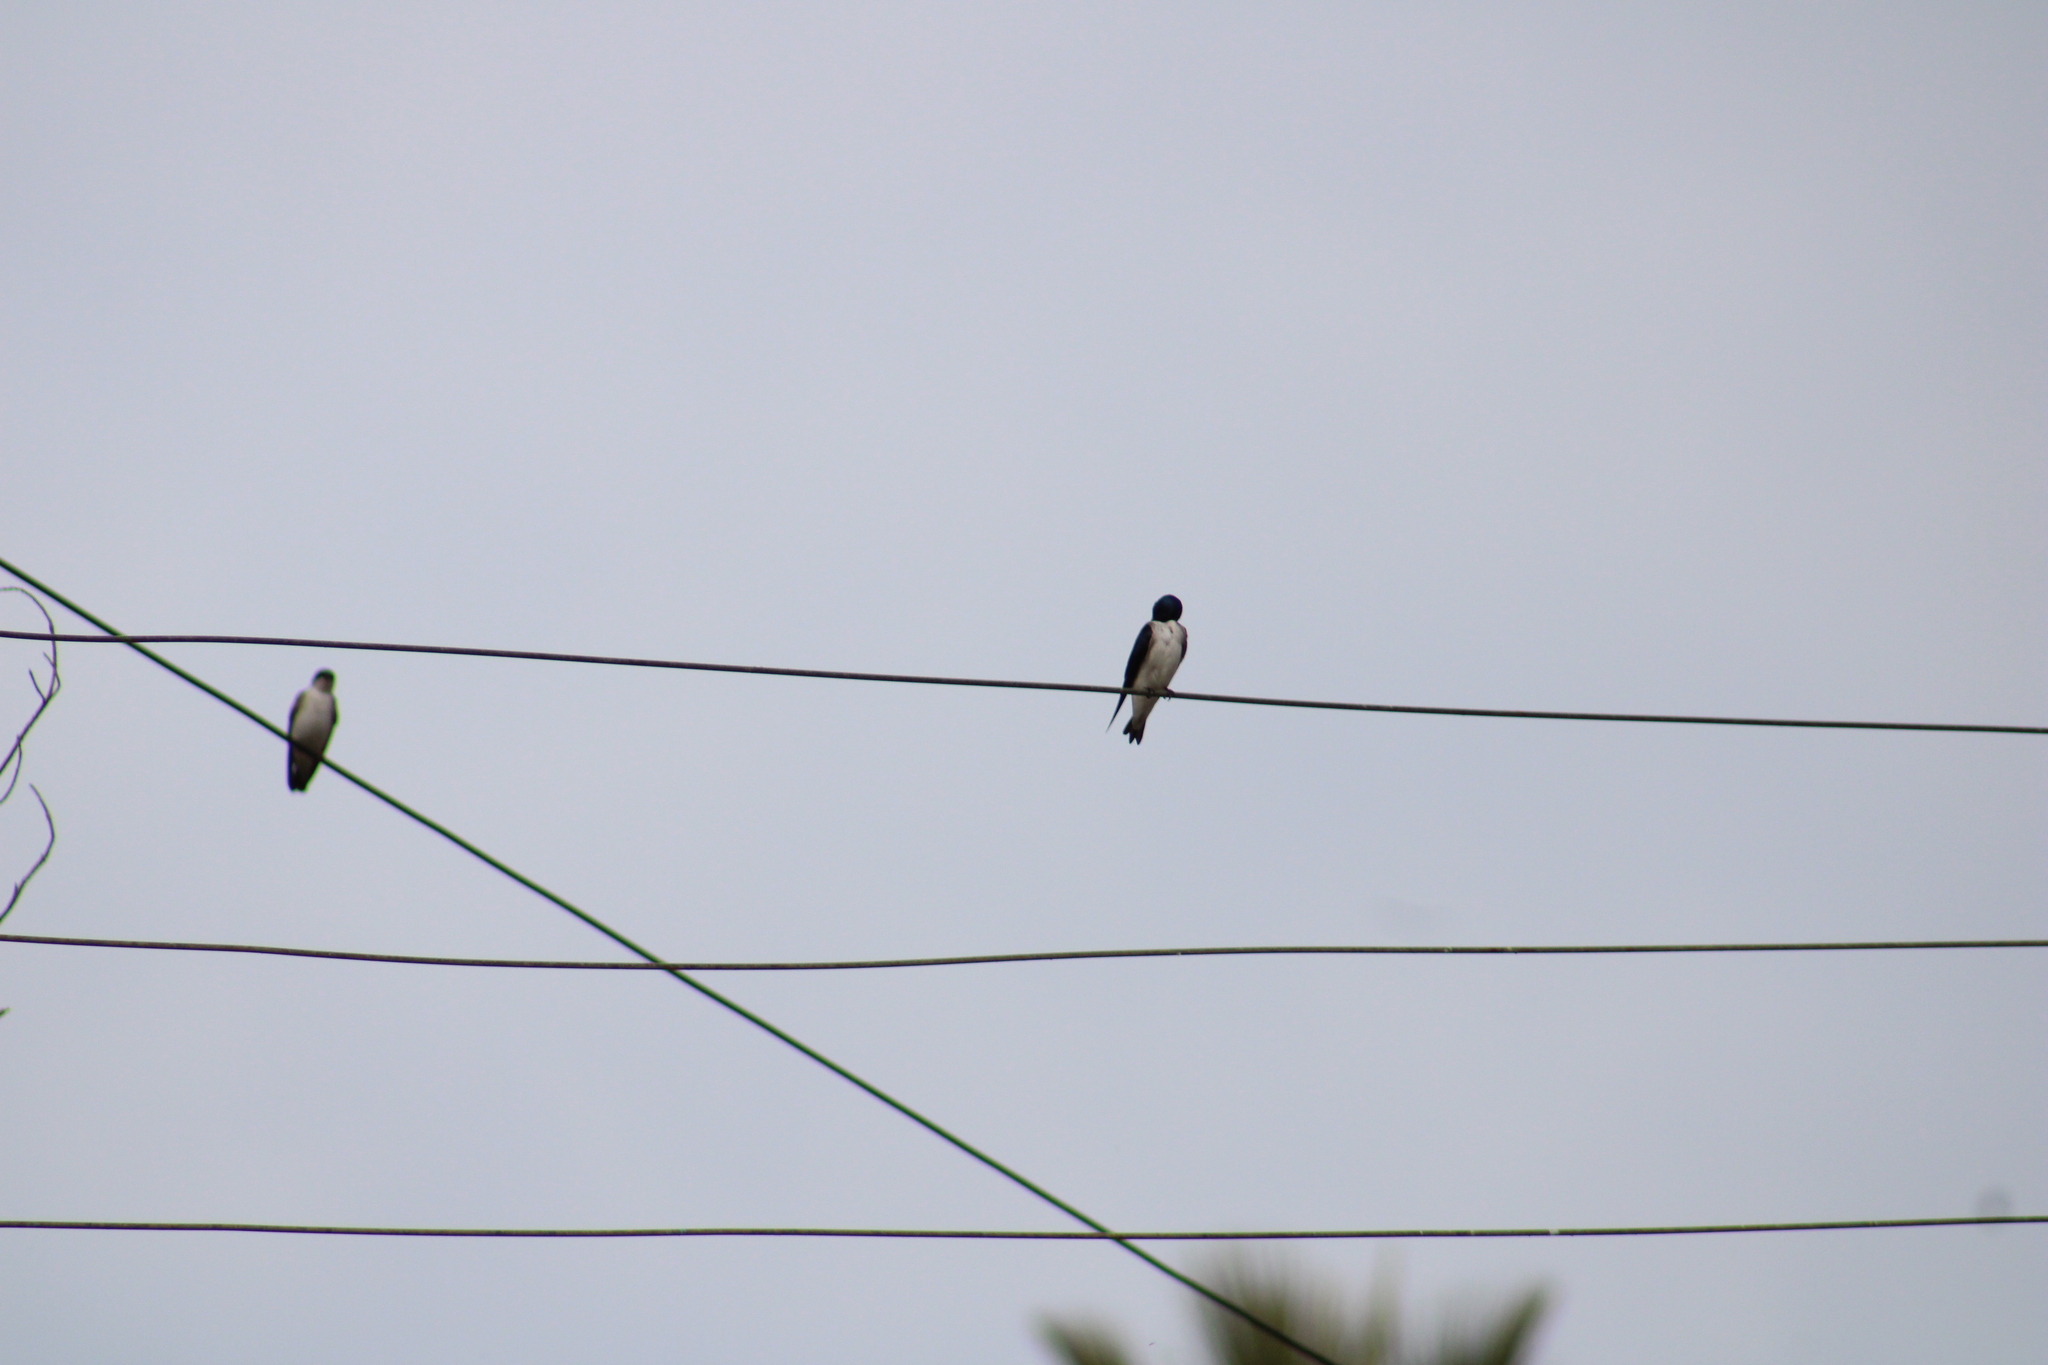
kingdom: Animalia
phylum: Chordata
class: Aves
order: Passeriformes
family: Hirundinidae
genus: Tachycineta
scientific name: Tachycineta leucopyga
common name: Chilean swallow
